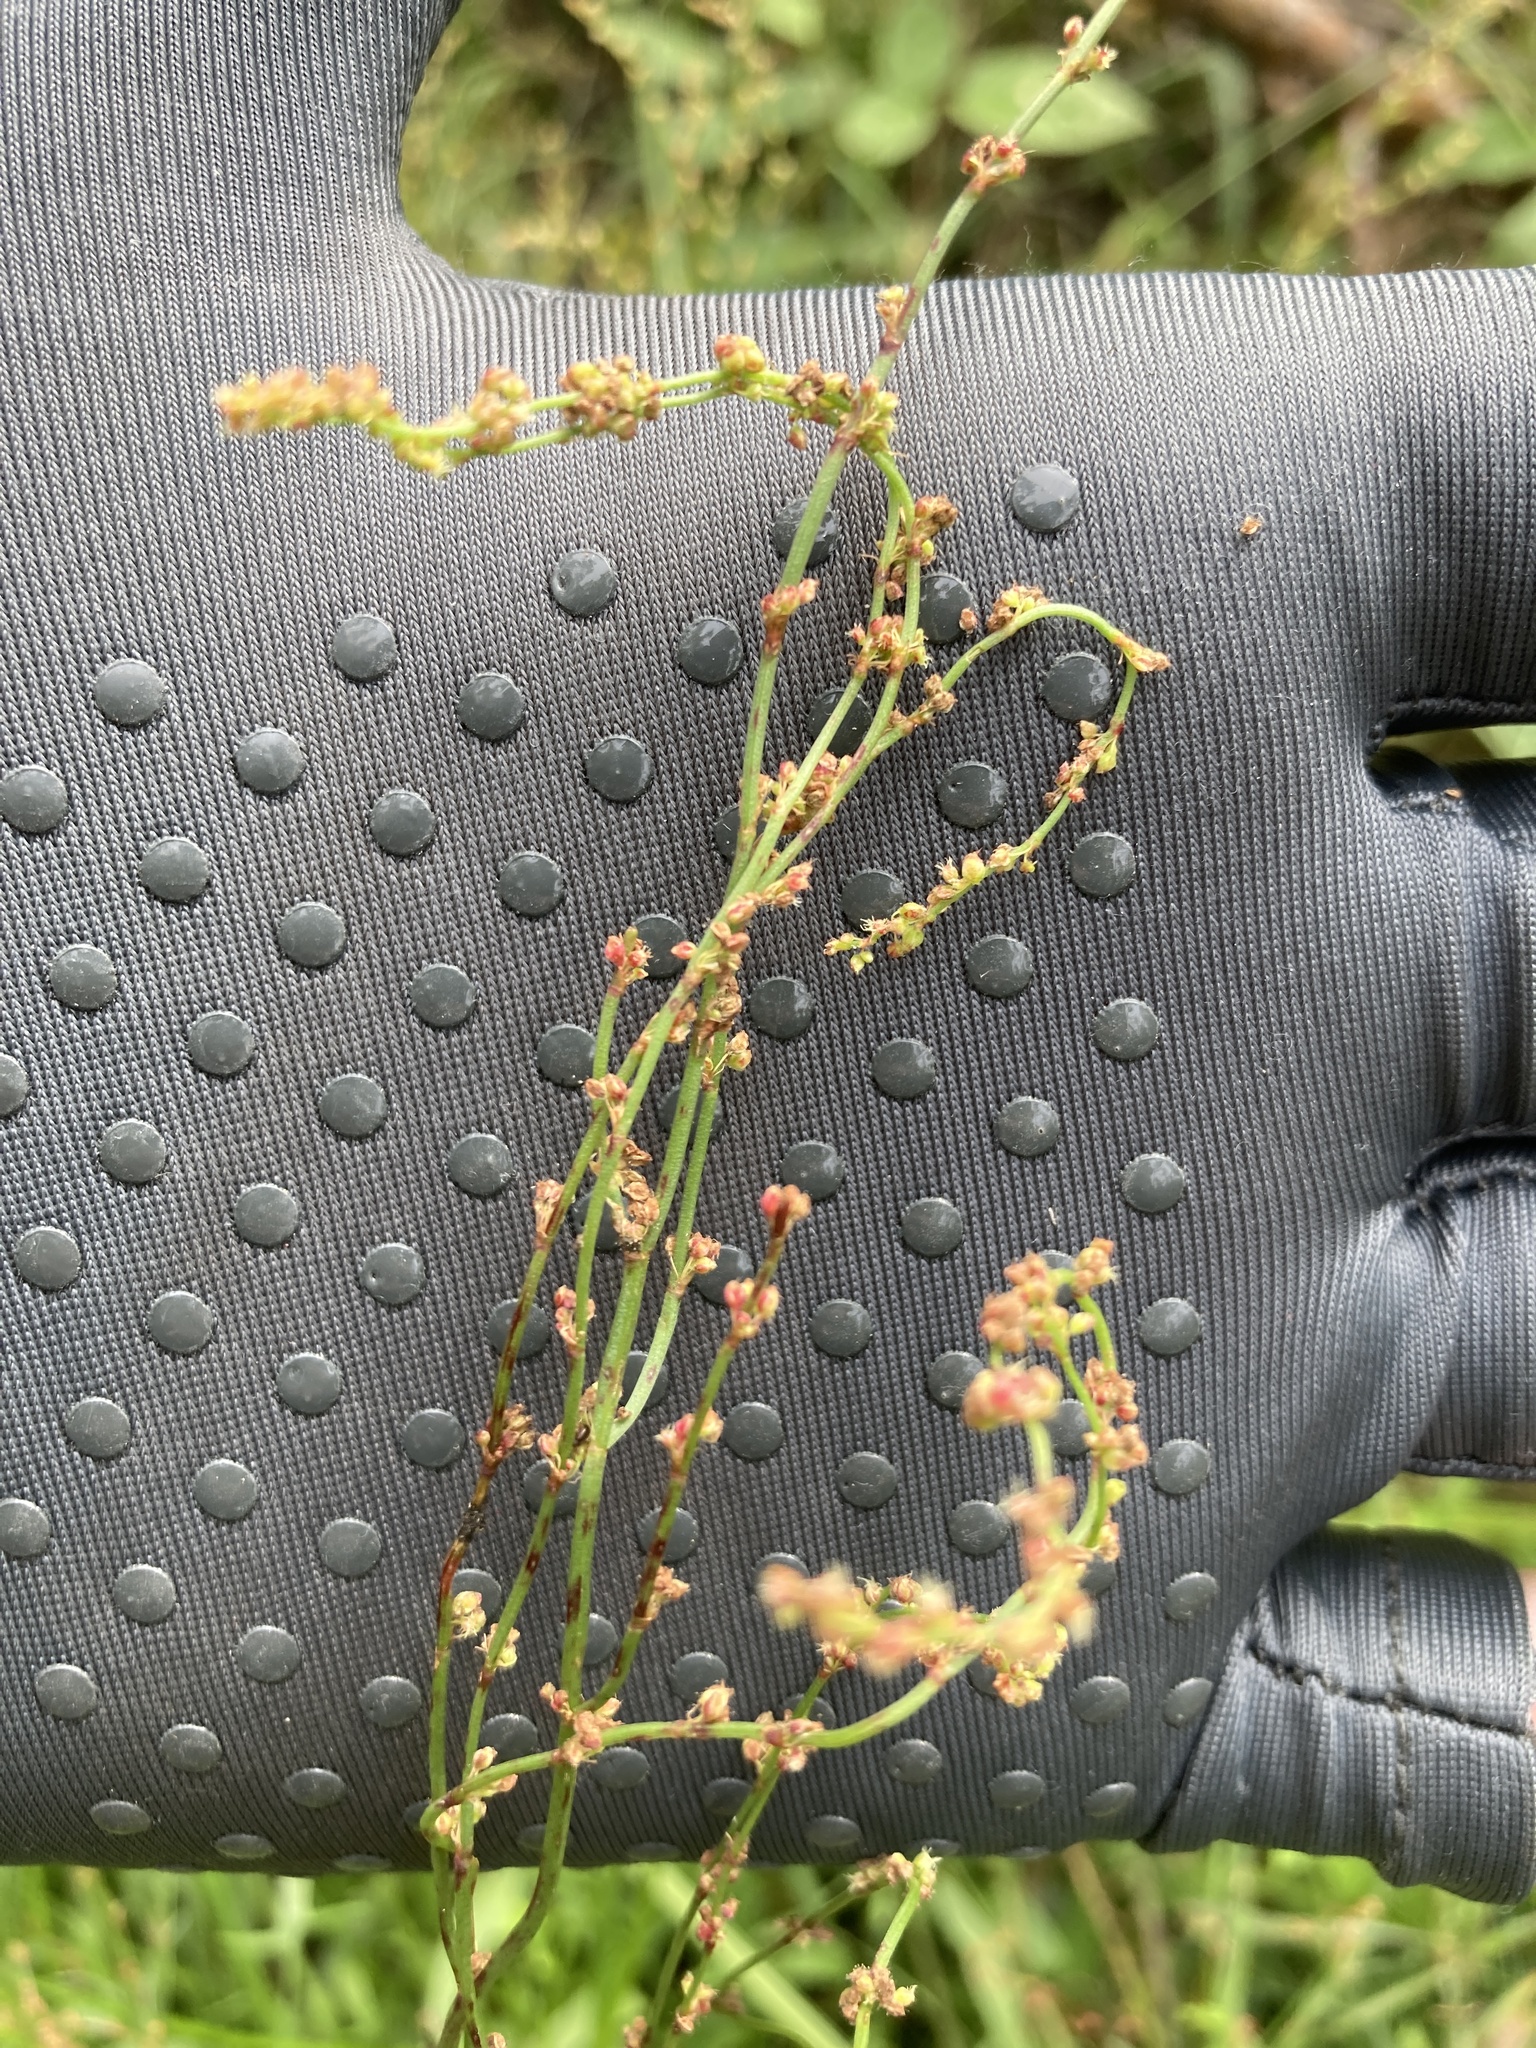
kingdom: Plantae
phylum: Tracheophyta
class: Magnoliopsida
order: Caryophyllales
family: Polygonaceae
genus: Rumex
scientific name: Rumex acetosella
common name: Common sheep sorrel
